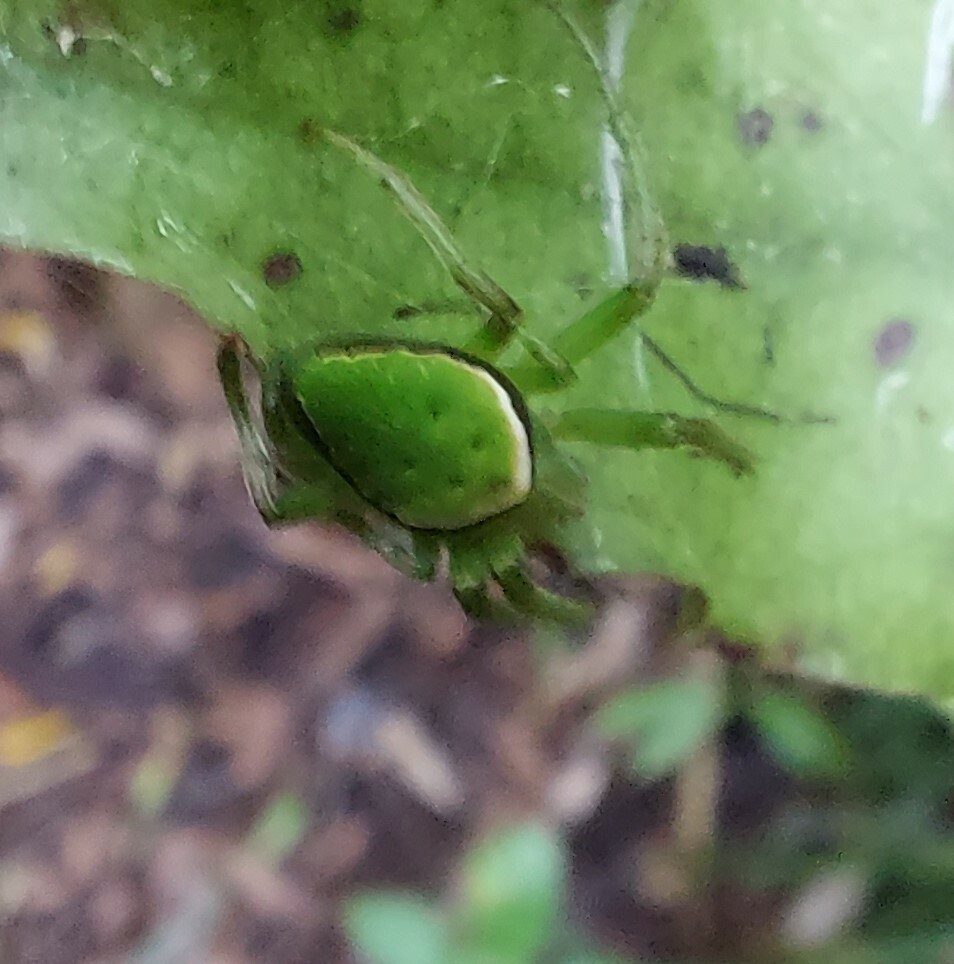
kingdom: Animalia
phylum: Arthropoda
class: Arachnida
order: Araneae
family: Araneidae
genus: Colaranea
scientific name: Colaranea viriditas
